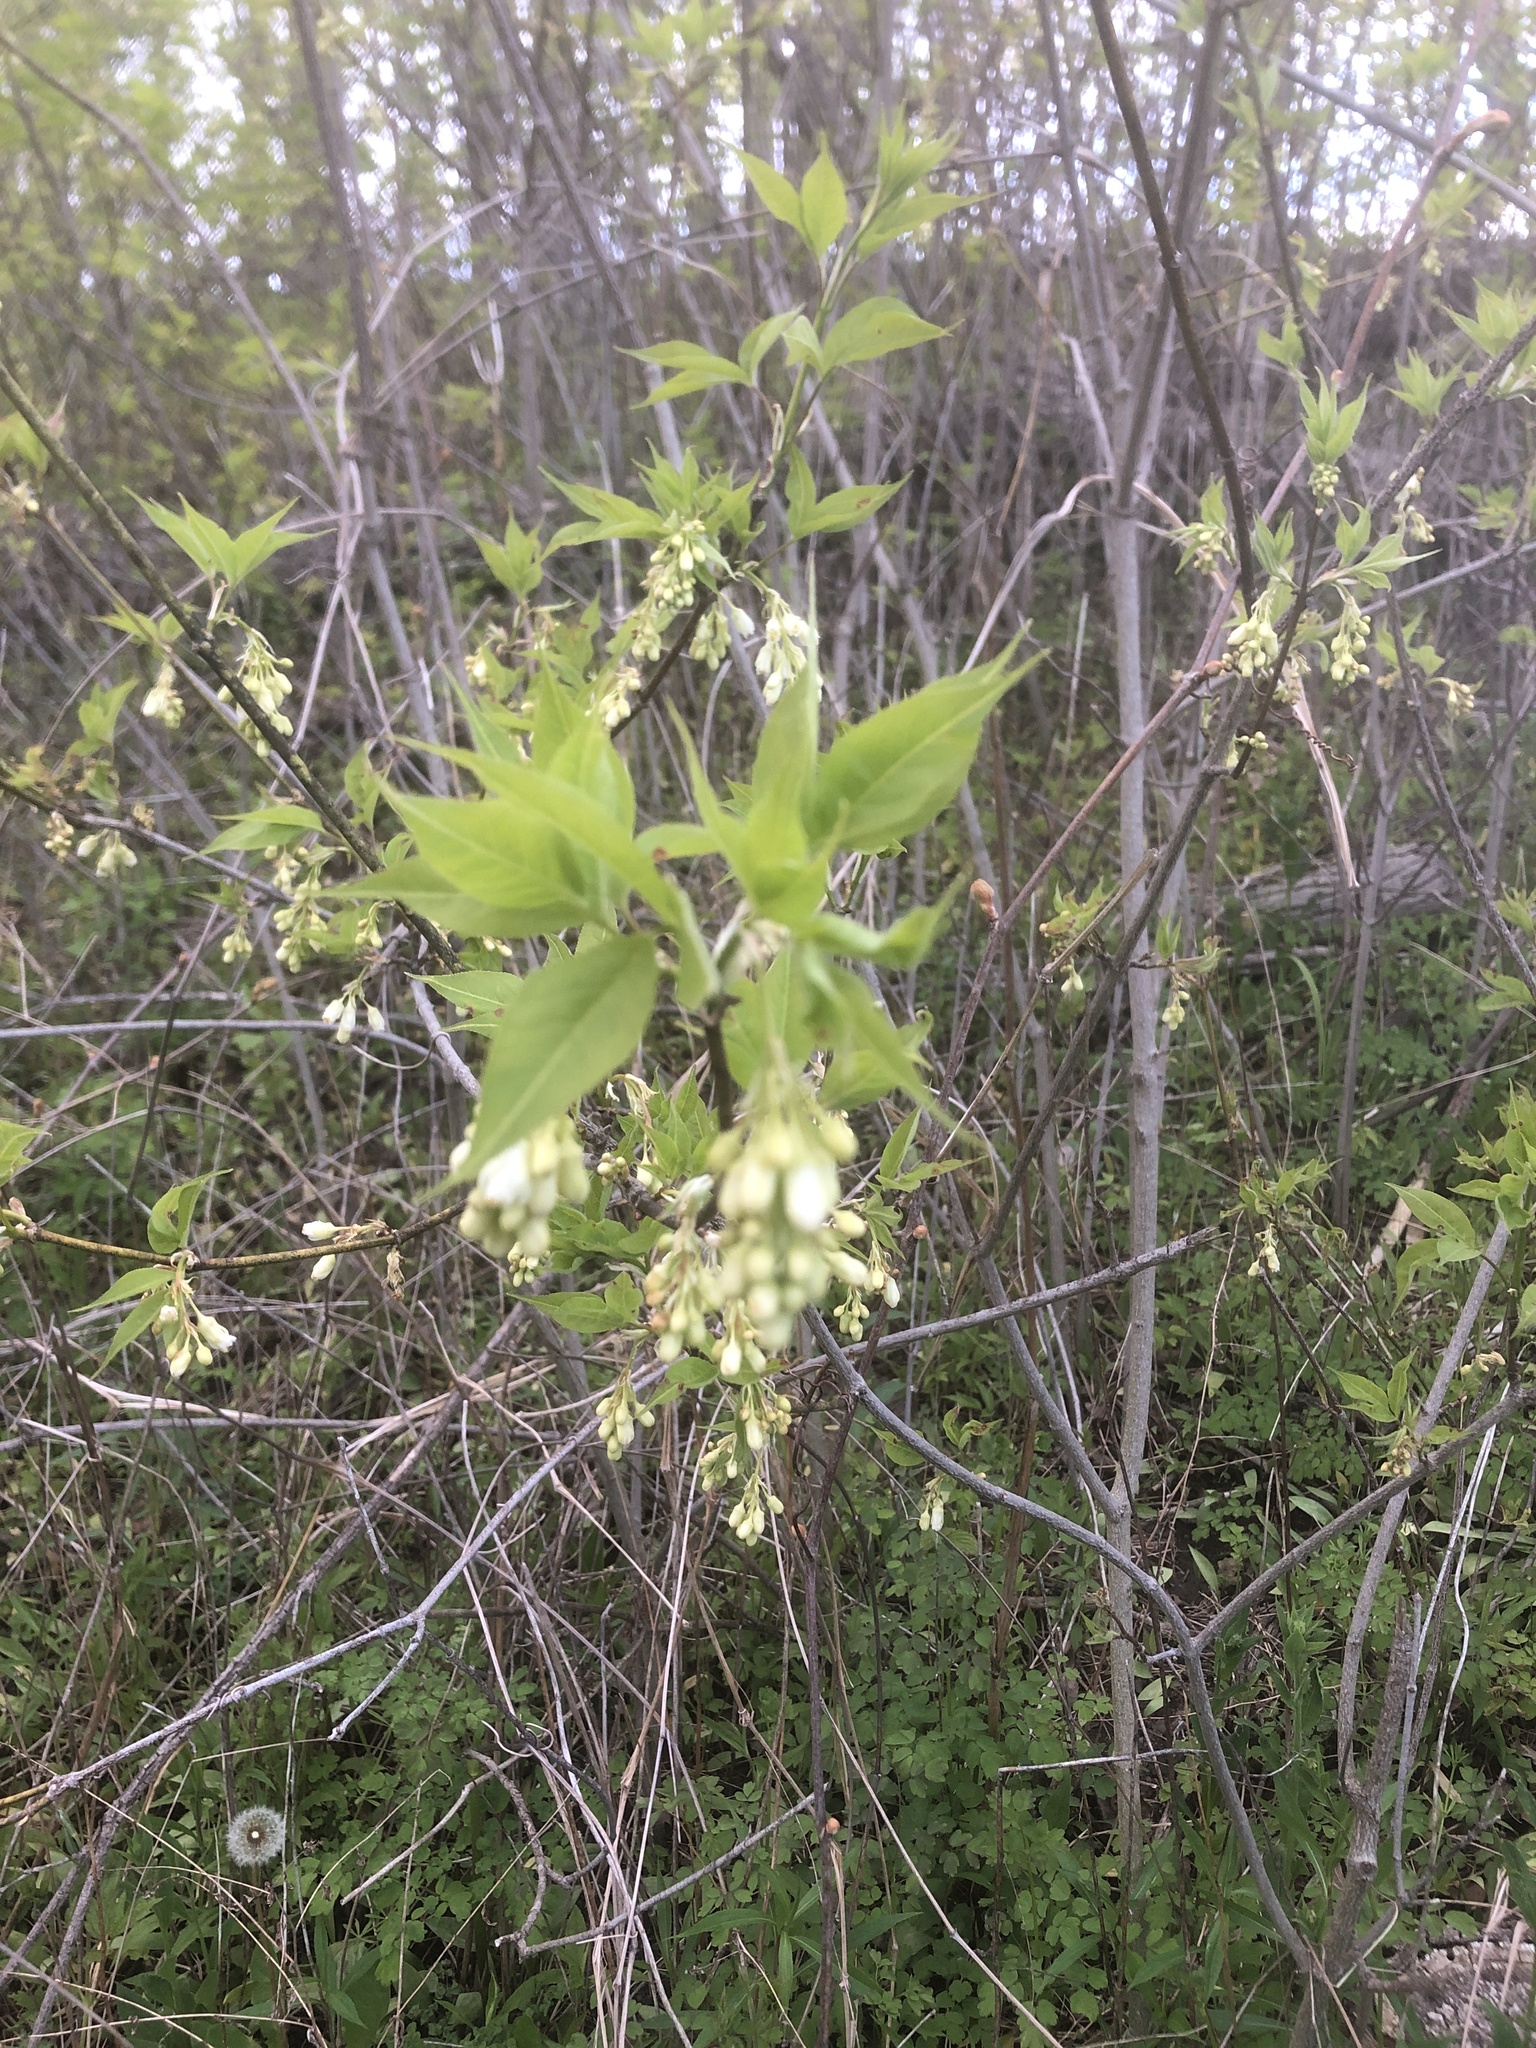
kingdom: Plantae
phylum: Tracheophyta
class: Magnoliopsida
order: Crossosomatales
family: Staphyleaceae
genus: Staphylea
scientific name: Staphylea trifolia
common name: American bladdernut
